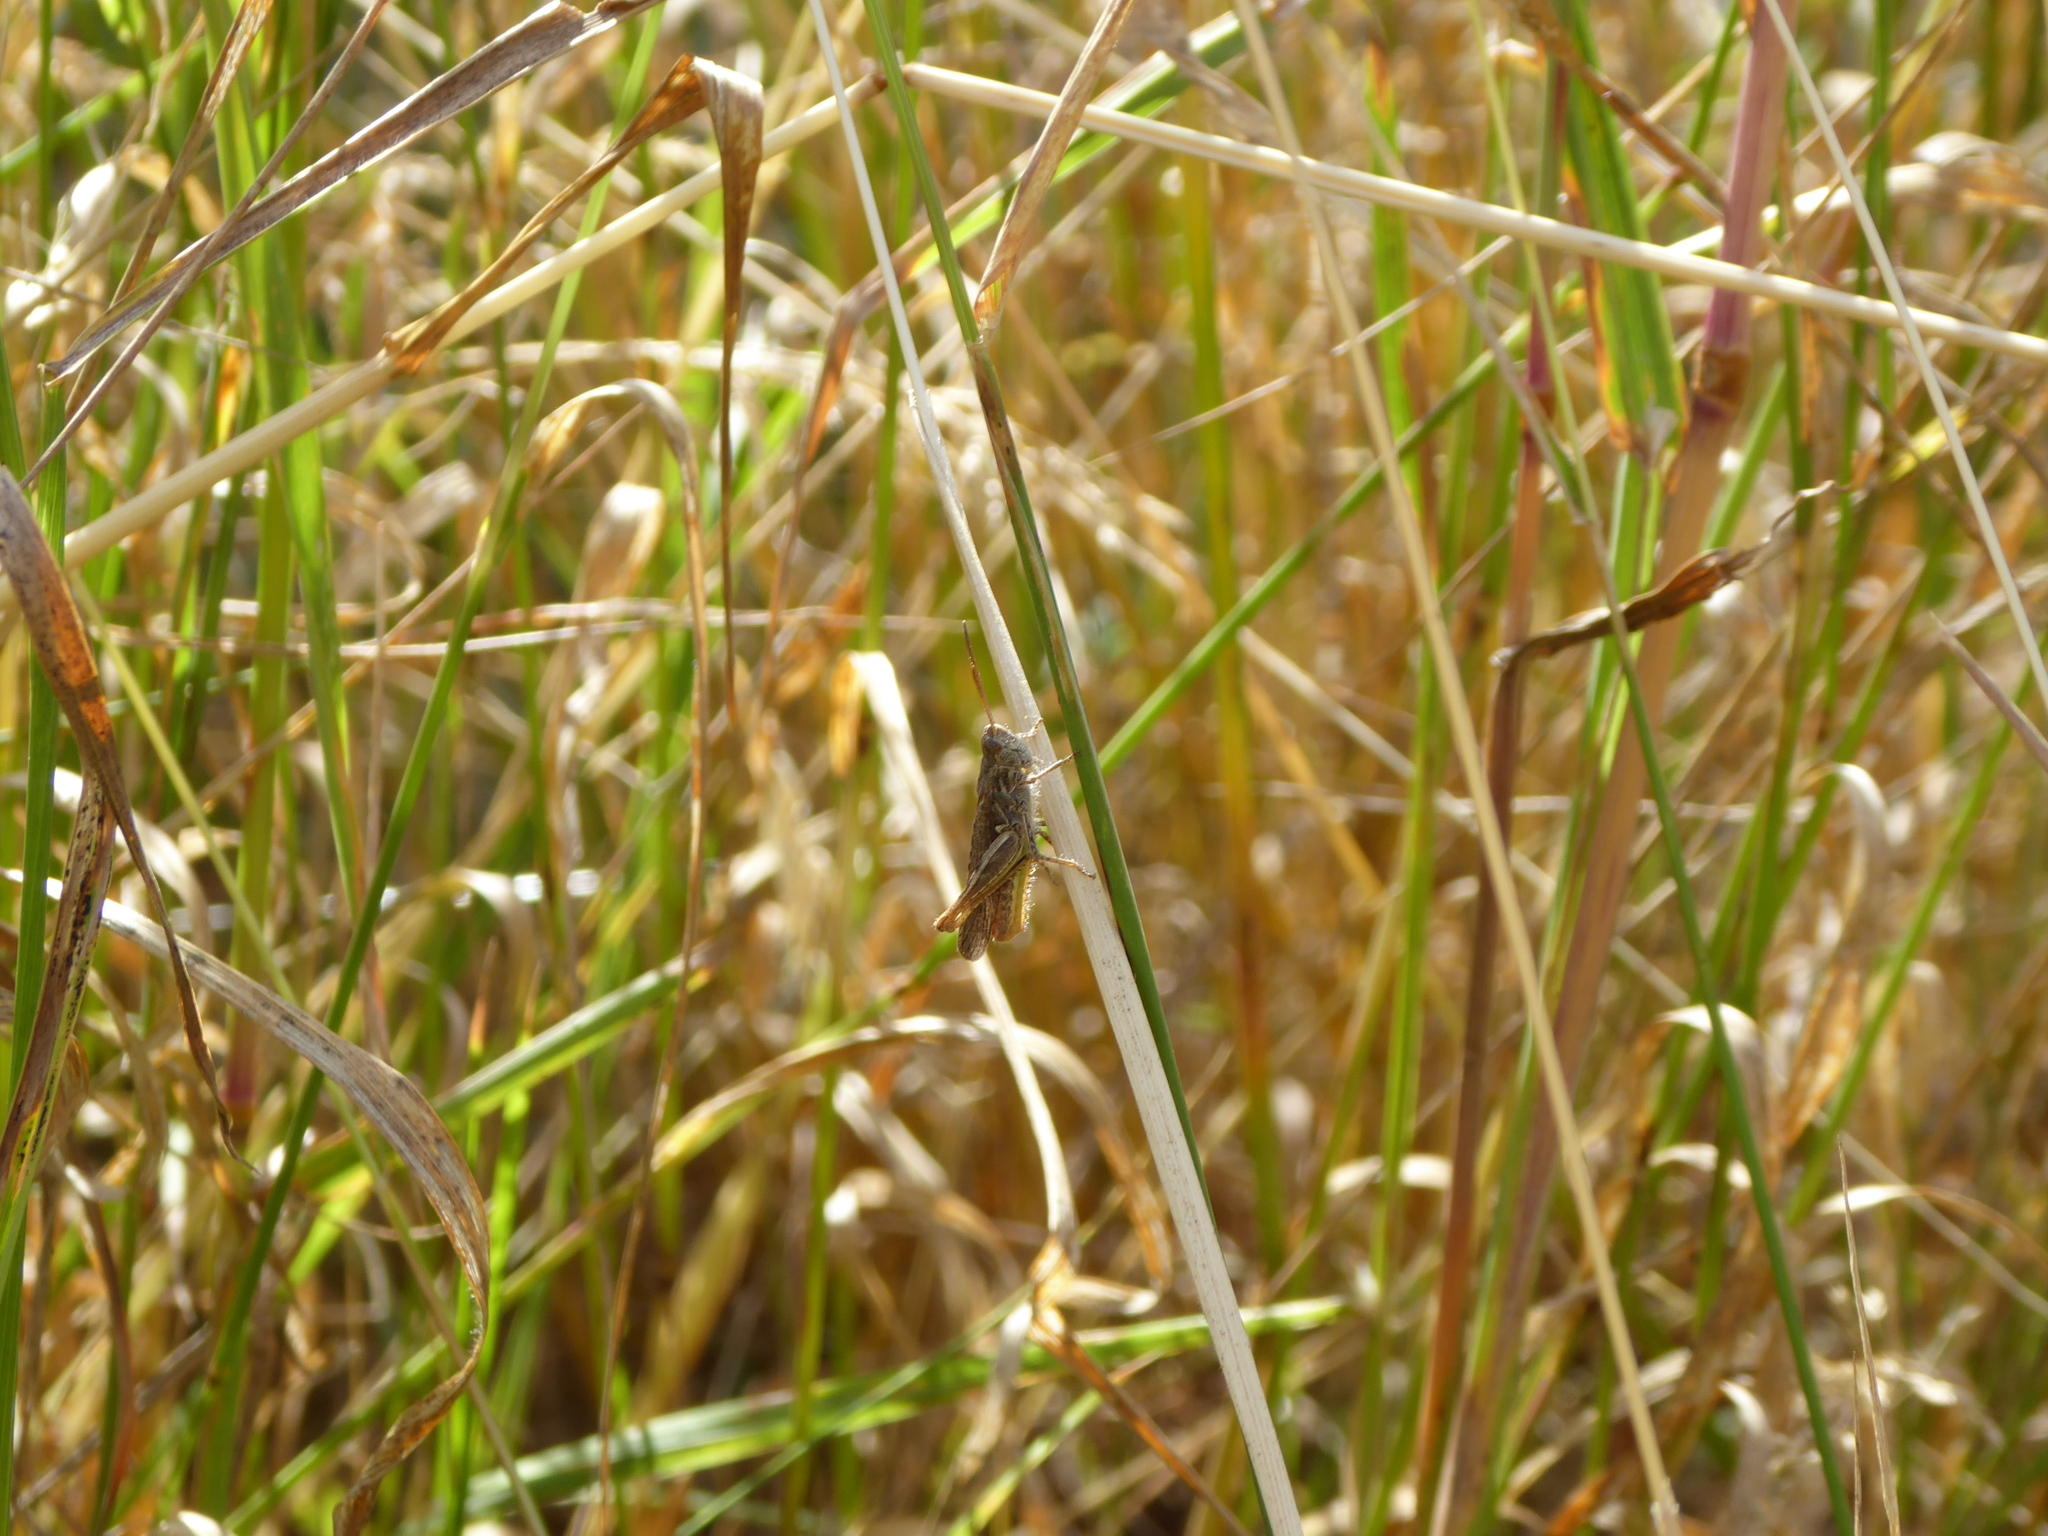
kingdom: Animalia
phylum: Arthropoda
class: Insecta
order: Orthoptera
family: Acrididae
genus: Chorthippus
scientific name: Chorthippus brunneus
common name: Field grasshopper
